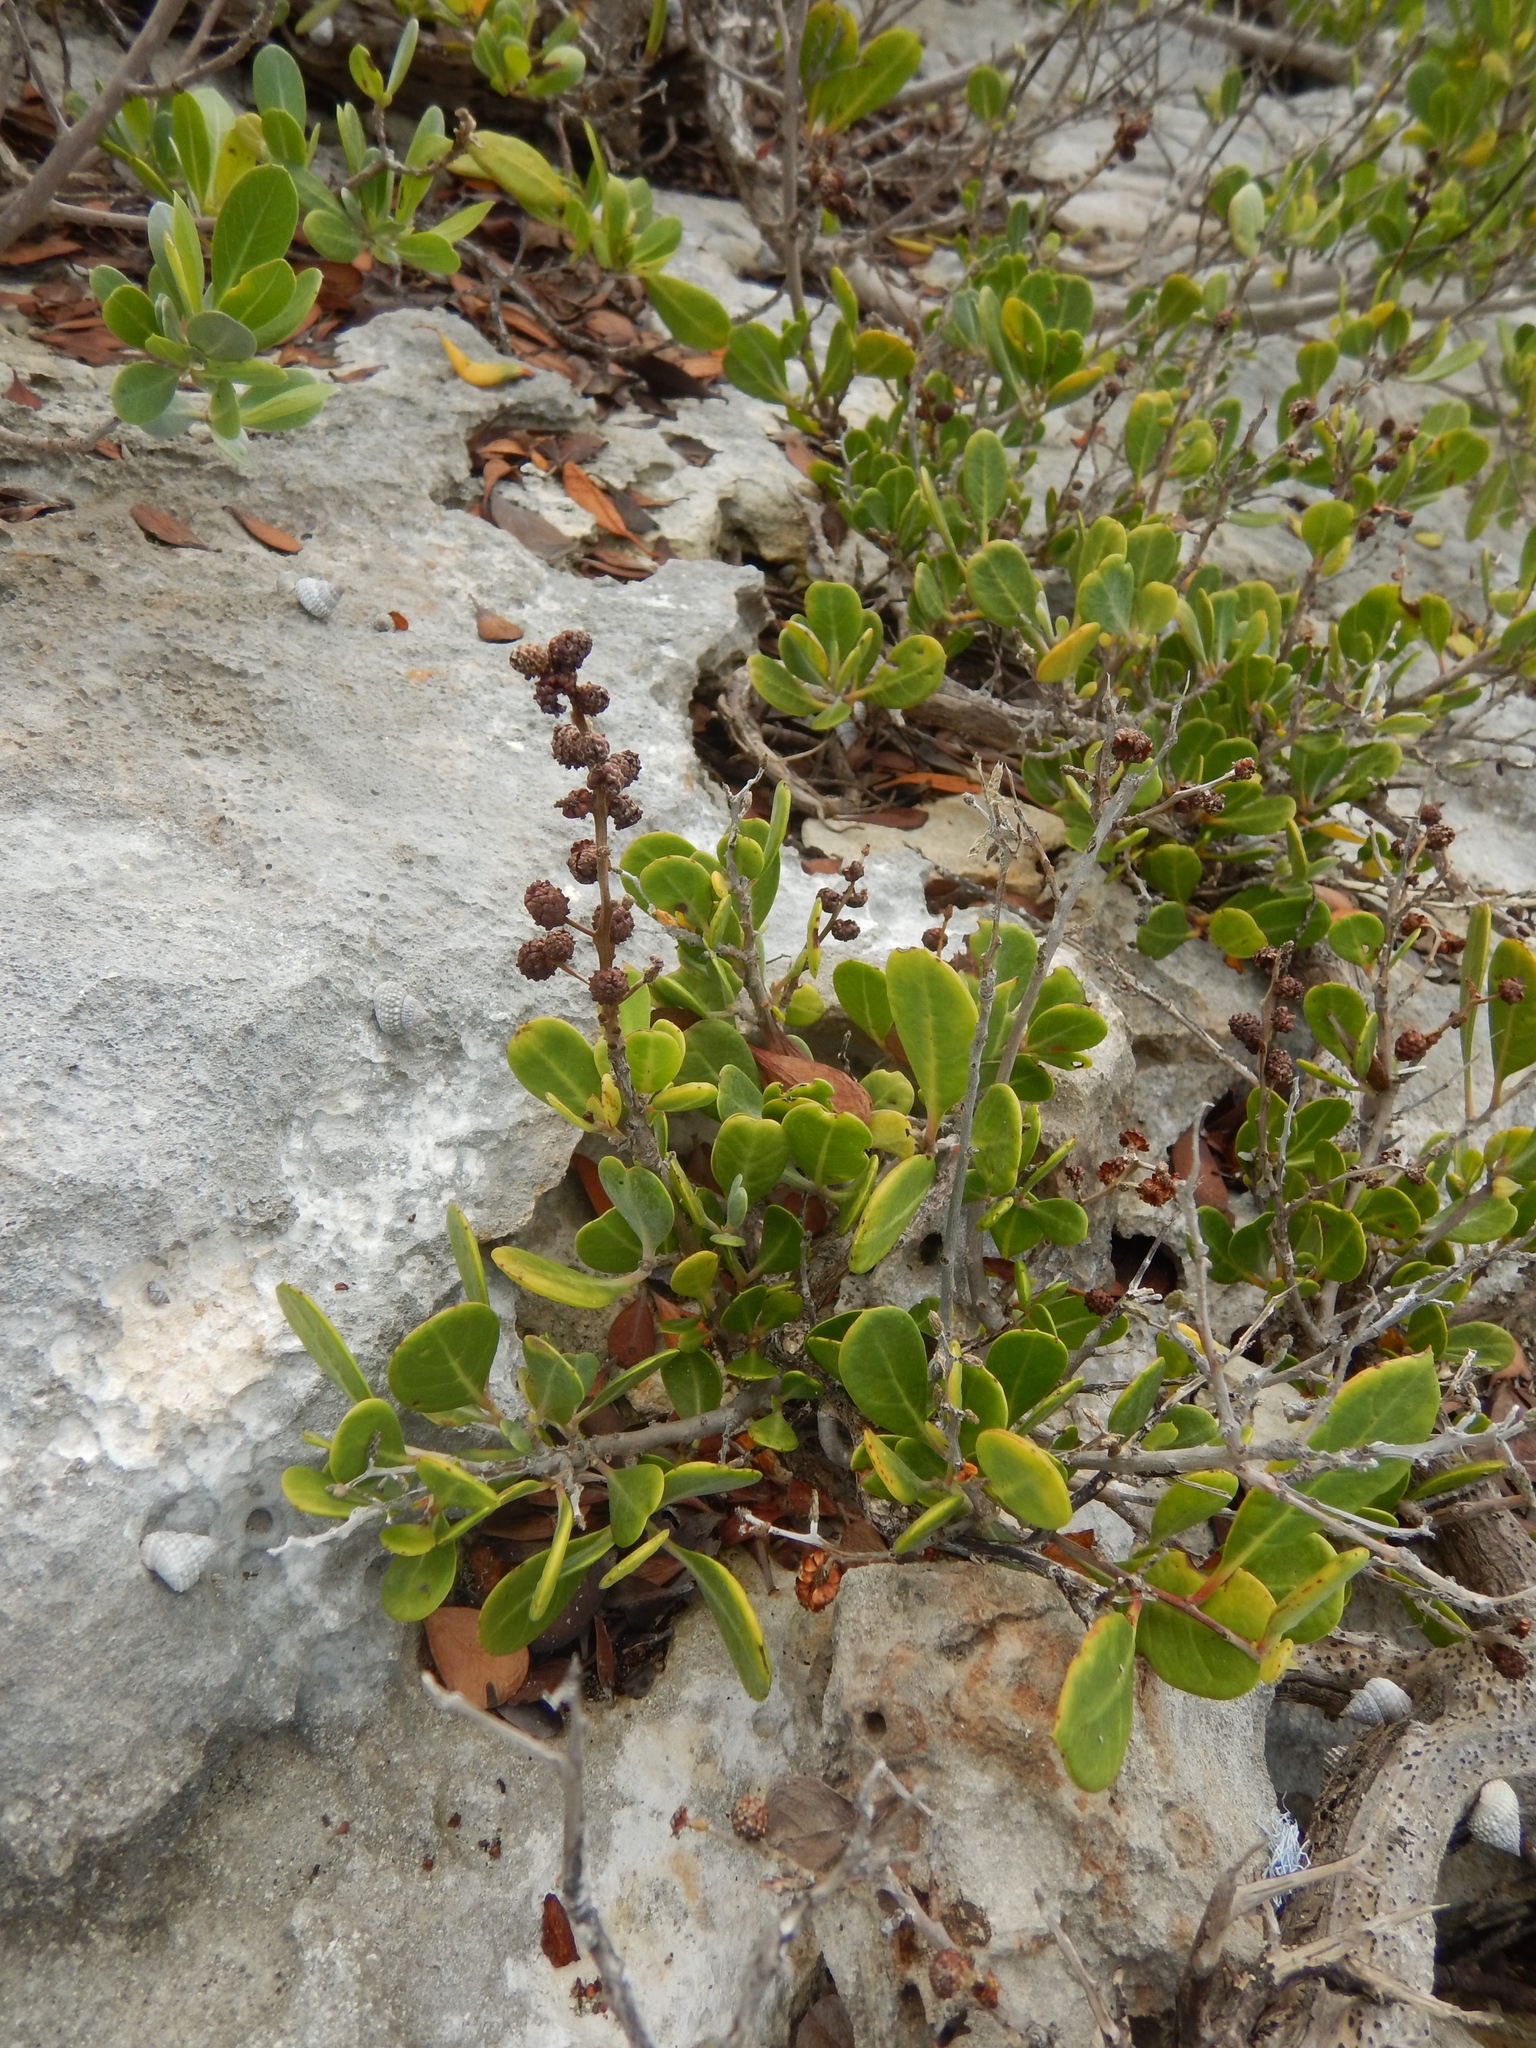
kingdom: Plantae
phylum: Tracheophyta
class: Magnoliopsida
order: Myrtales
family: Combretaceae
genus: Conocarpus
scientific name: Conocarpus erectus
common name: Button mangrove
